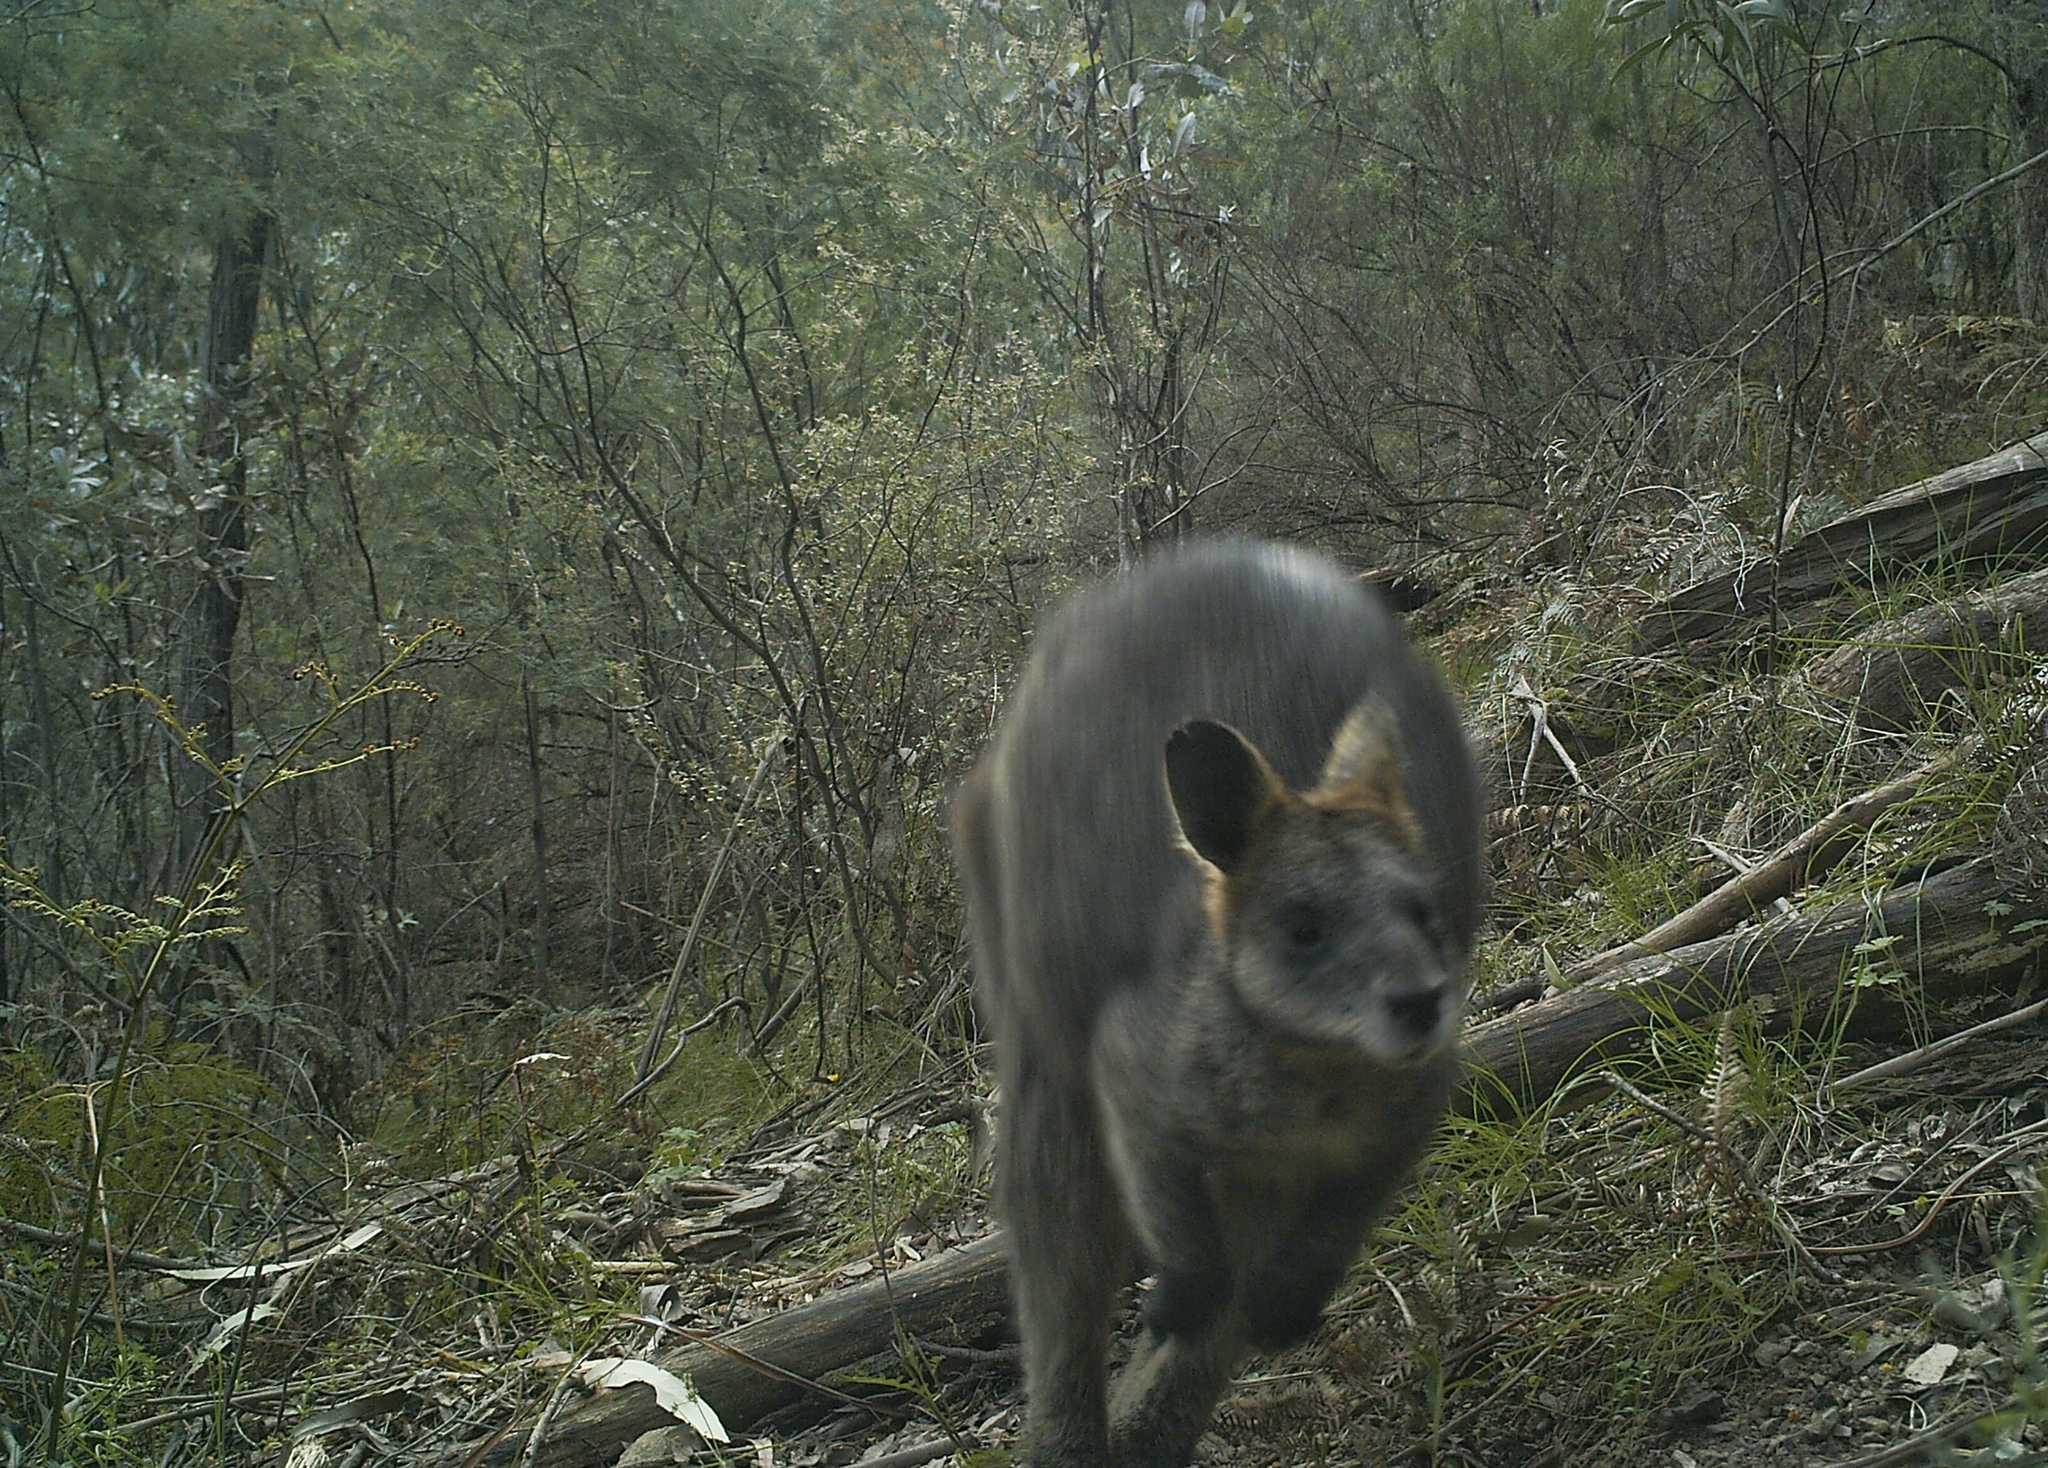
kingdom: Animalia
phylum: Chordata
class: Mammalia
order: Diprotodontia
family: Macropodidae
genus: Wallabia
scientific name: Wallabia bicolor
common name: Swamp wallaby
